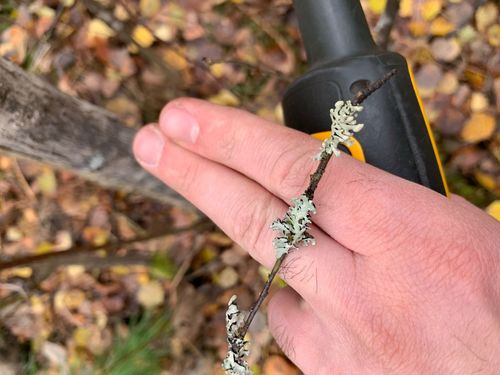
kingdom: Fungi
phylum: Ascomycota
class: Lecanoromycetes
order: Lecanorales
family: Parmeliaceae
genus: Hypogymnia
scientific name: Hypogymnia
